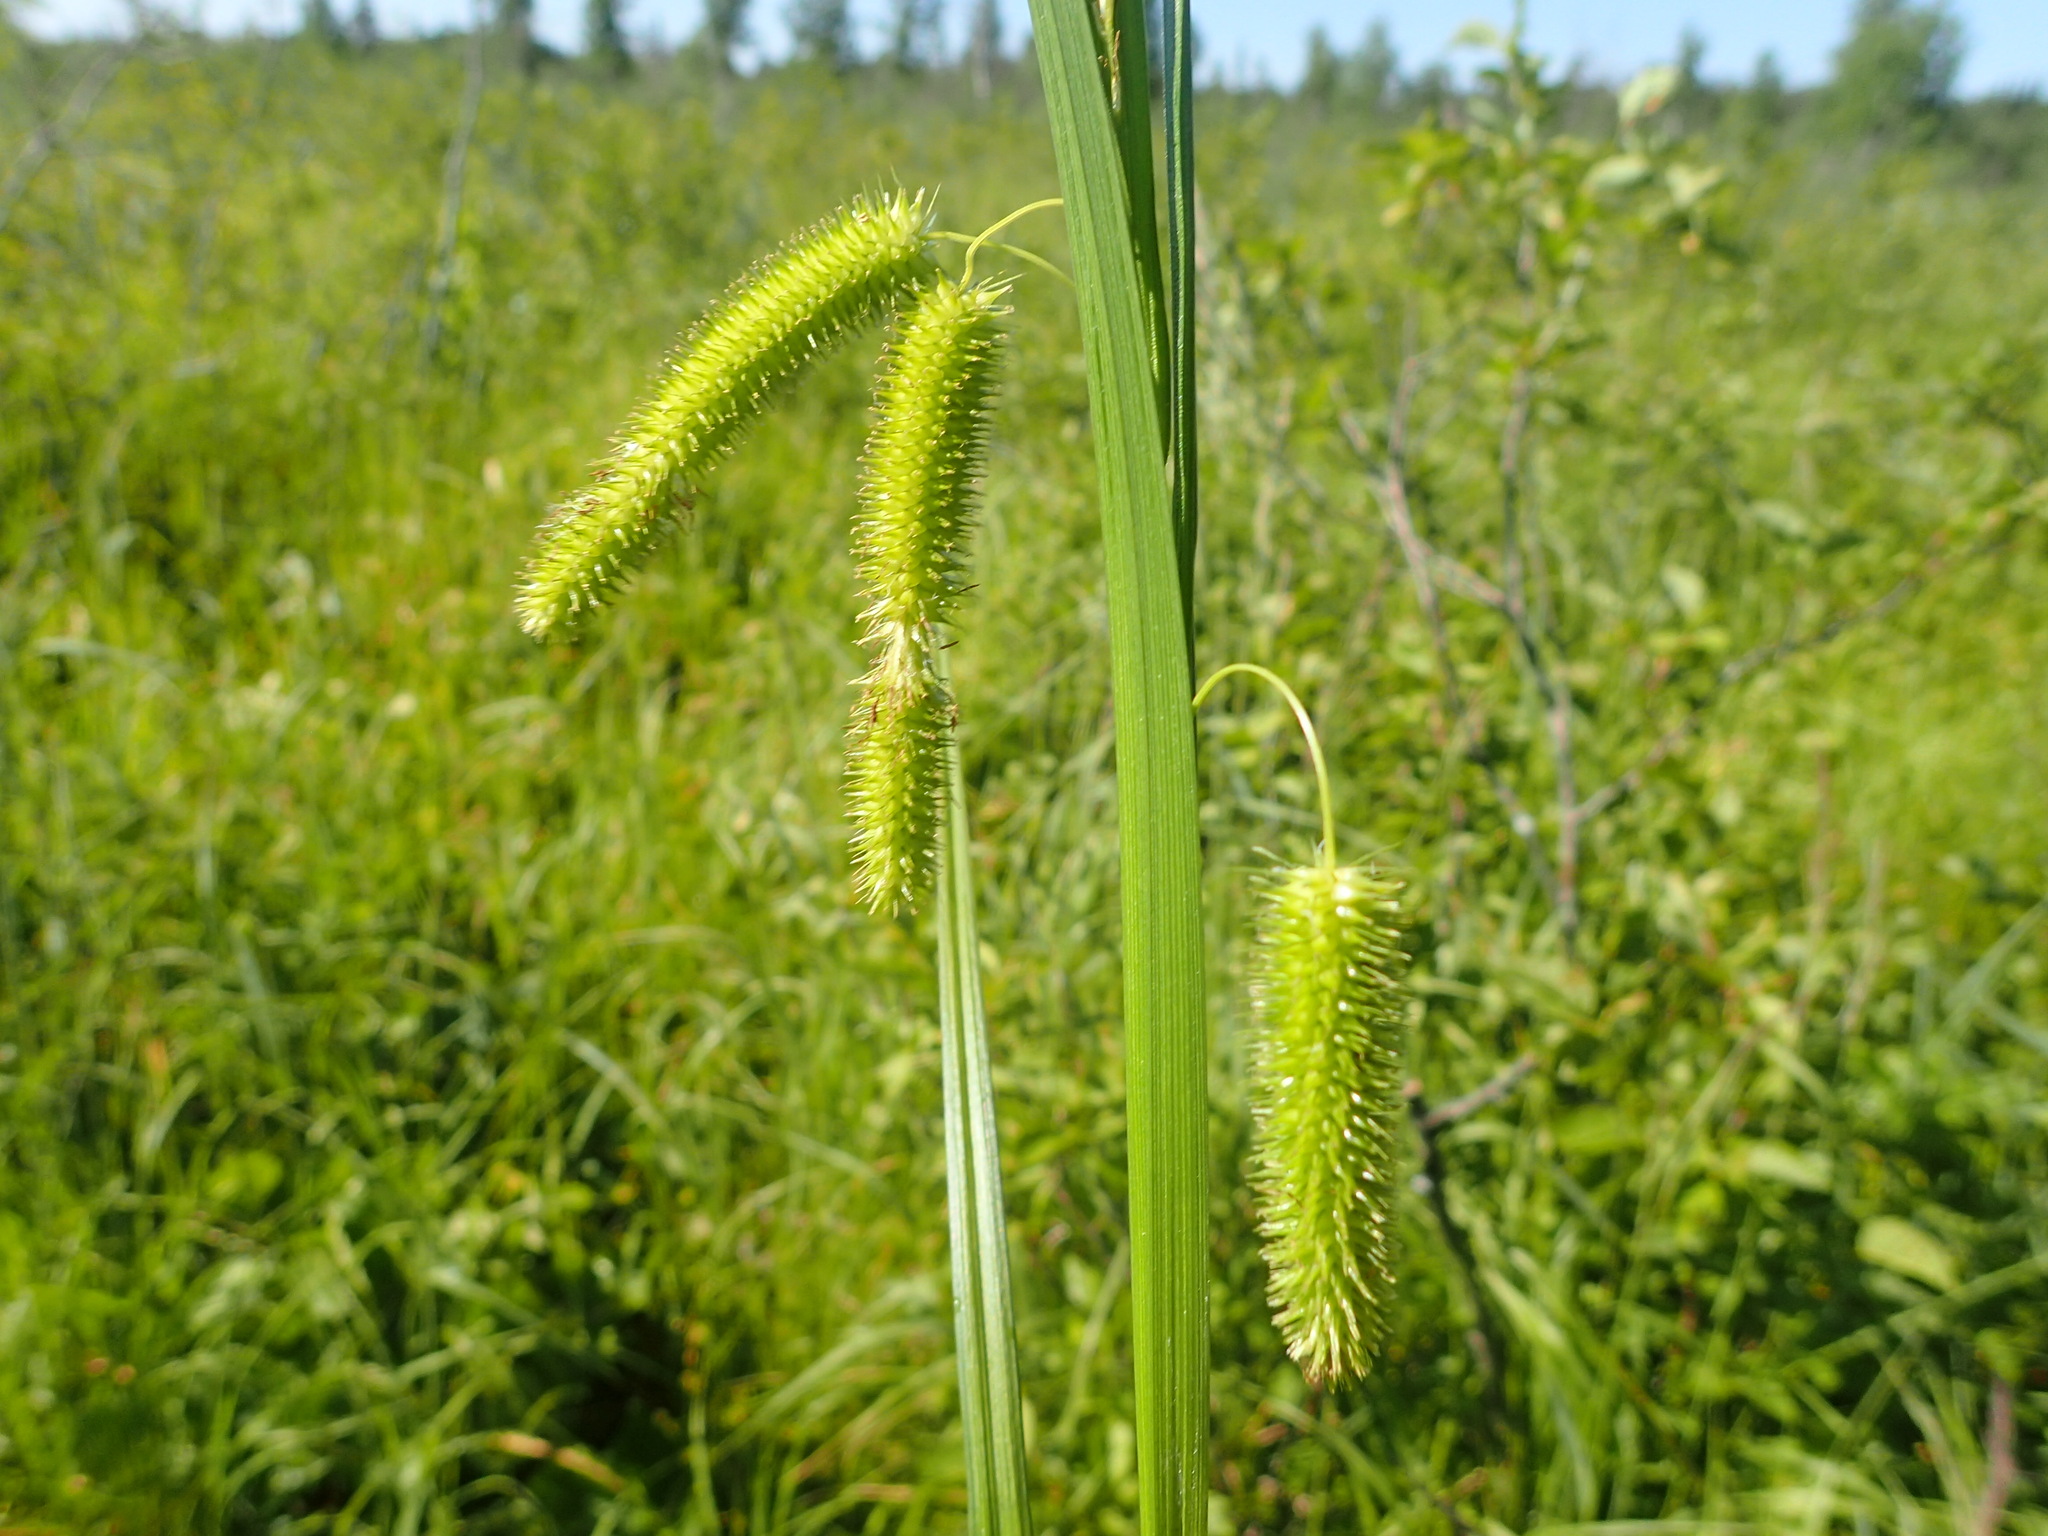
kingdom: Plantae
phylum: Tracheophyta
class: Liliopsida
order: Poales
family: Cyperaceae
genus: Carex
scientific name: Carex pseudocyperus
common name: Cyperus sedge
